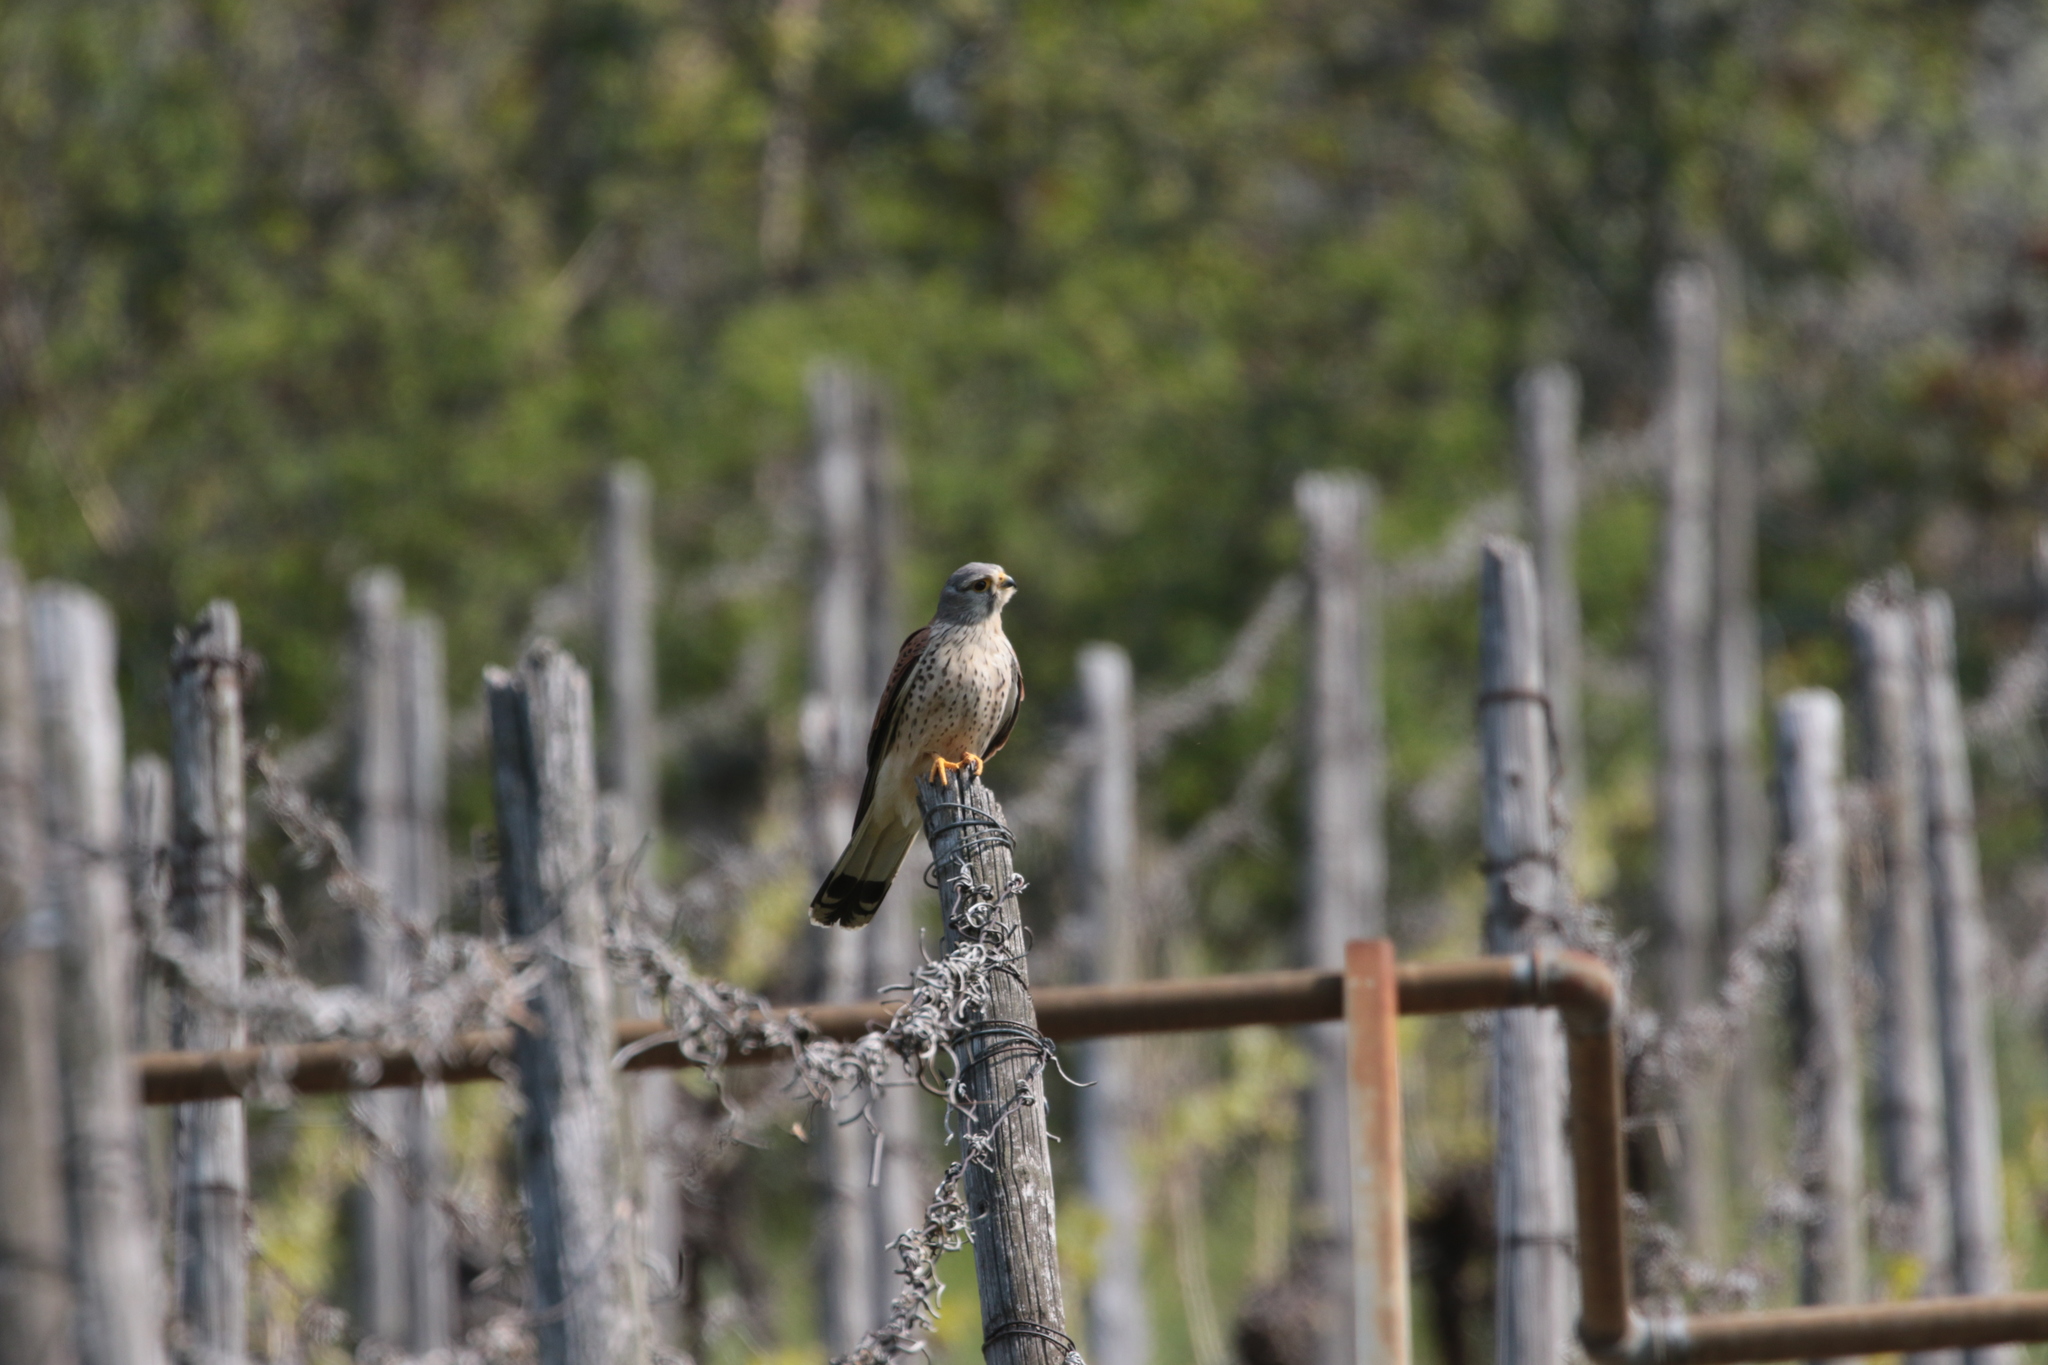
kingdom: Animalia
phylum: Chordata
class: Aves
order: Falconiformes
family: Falconidae
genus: Falco
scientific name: Falco tinnunculus
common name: Common kestrel
